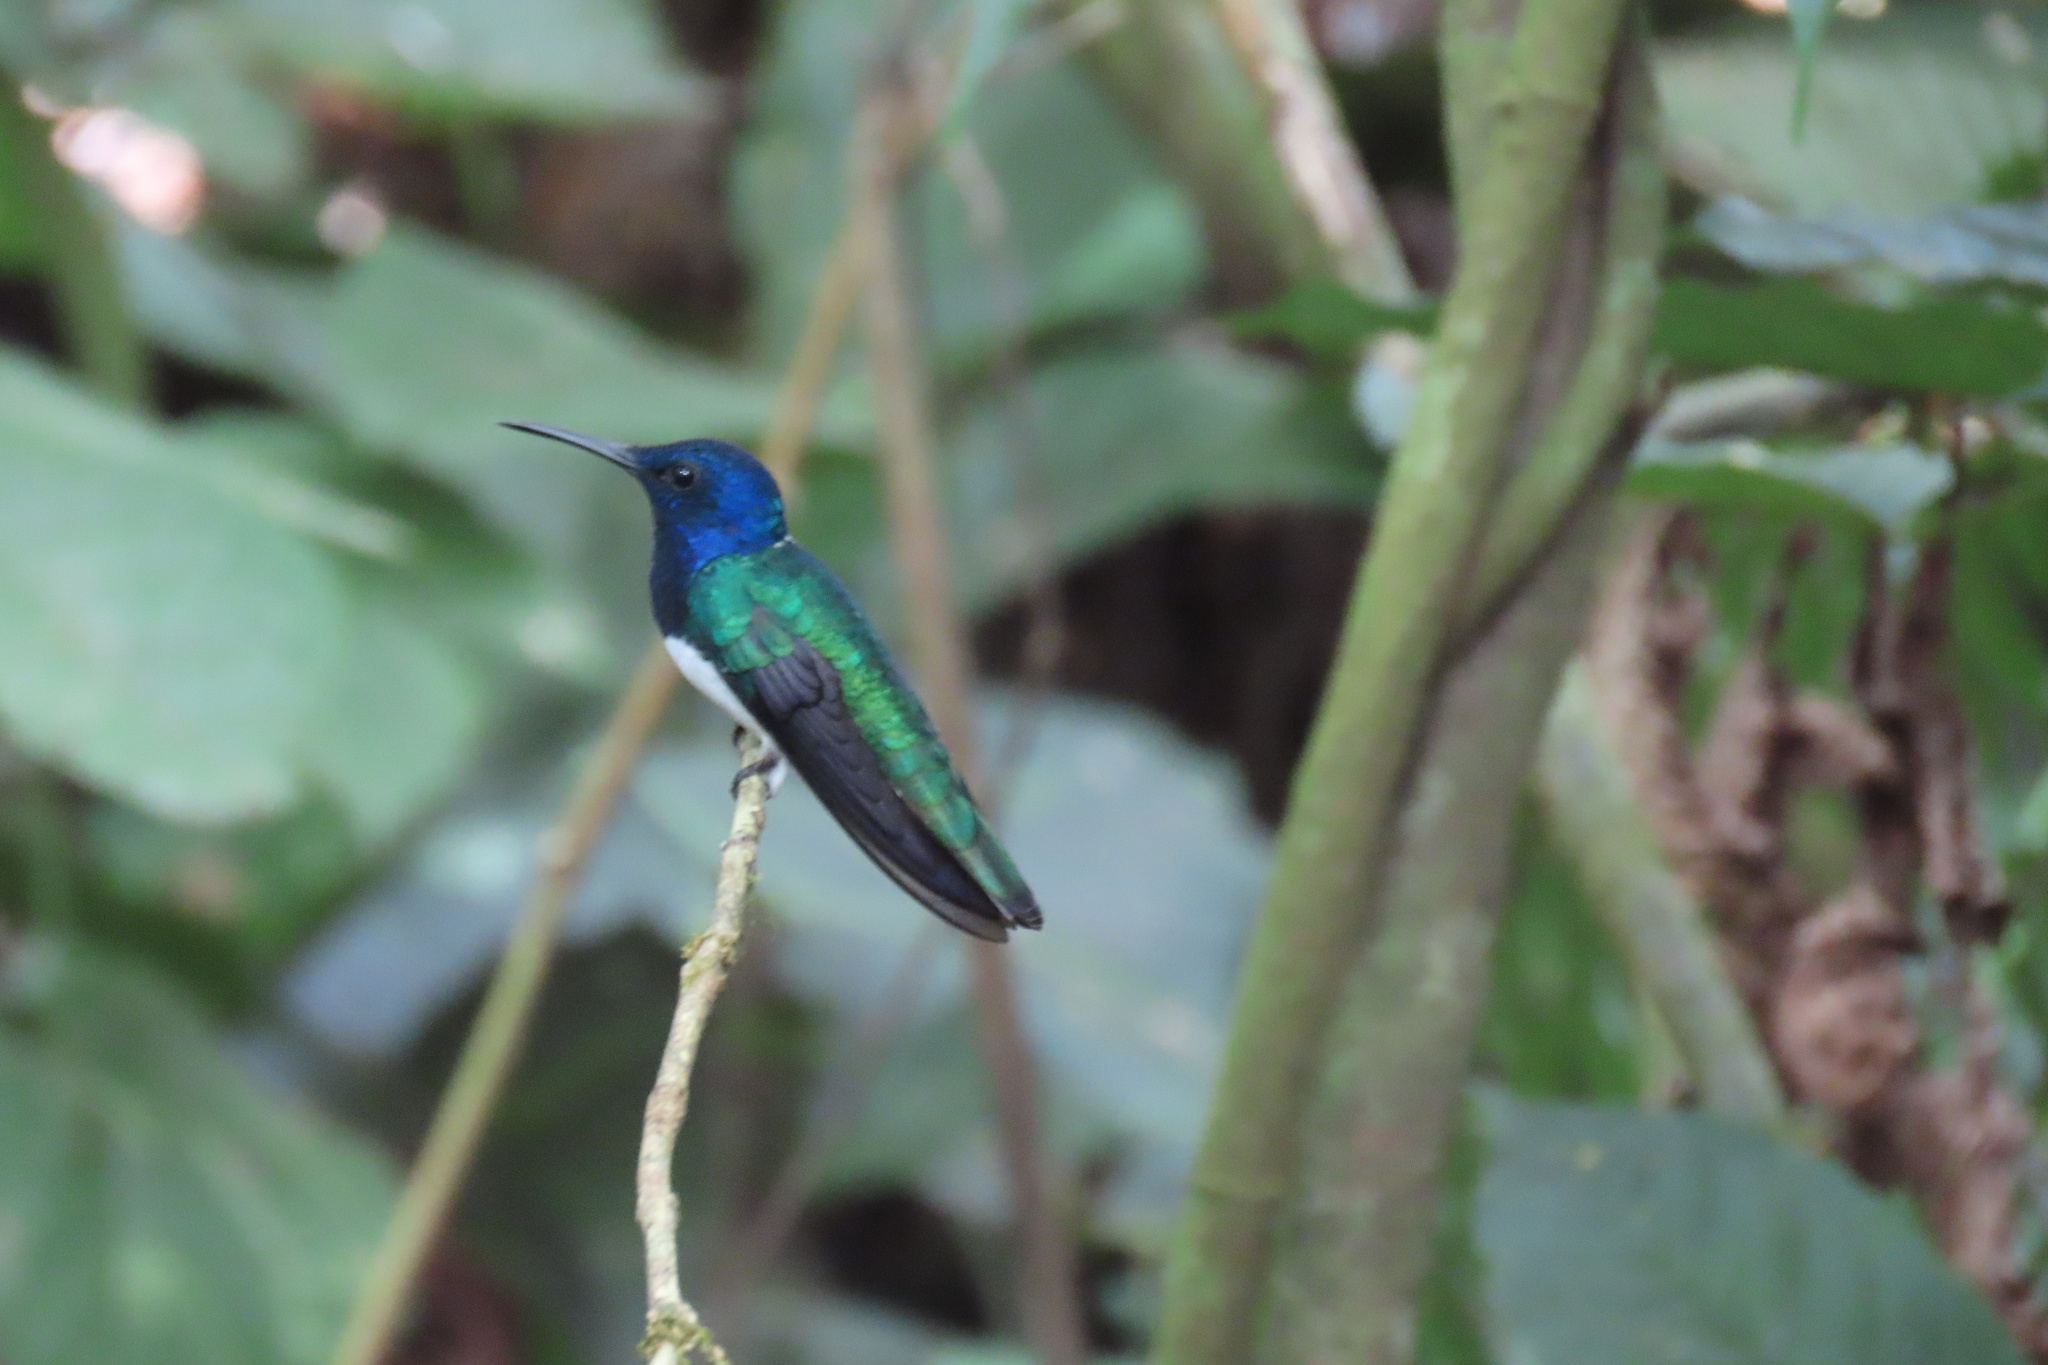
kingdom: Animalia
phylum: Chordata
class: Aves
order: Apodiformes
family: Trochilidae
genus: Florisuga
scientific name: Florisuga mellivora
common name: White-necked jacobin
